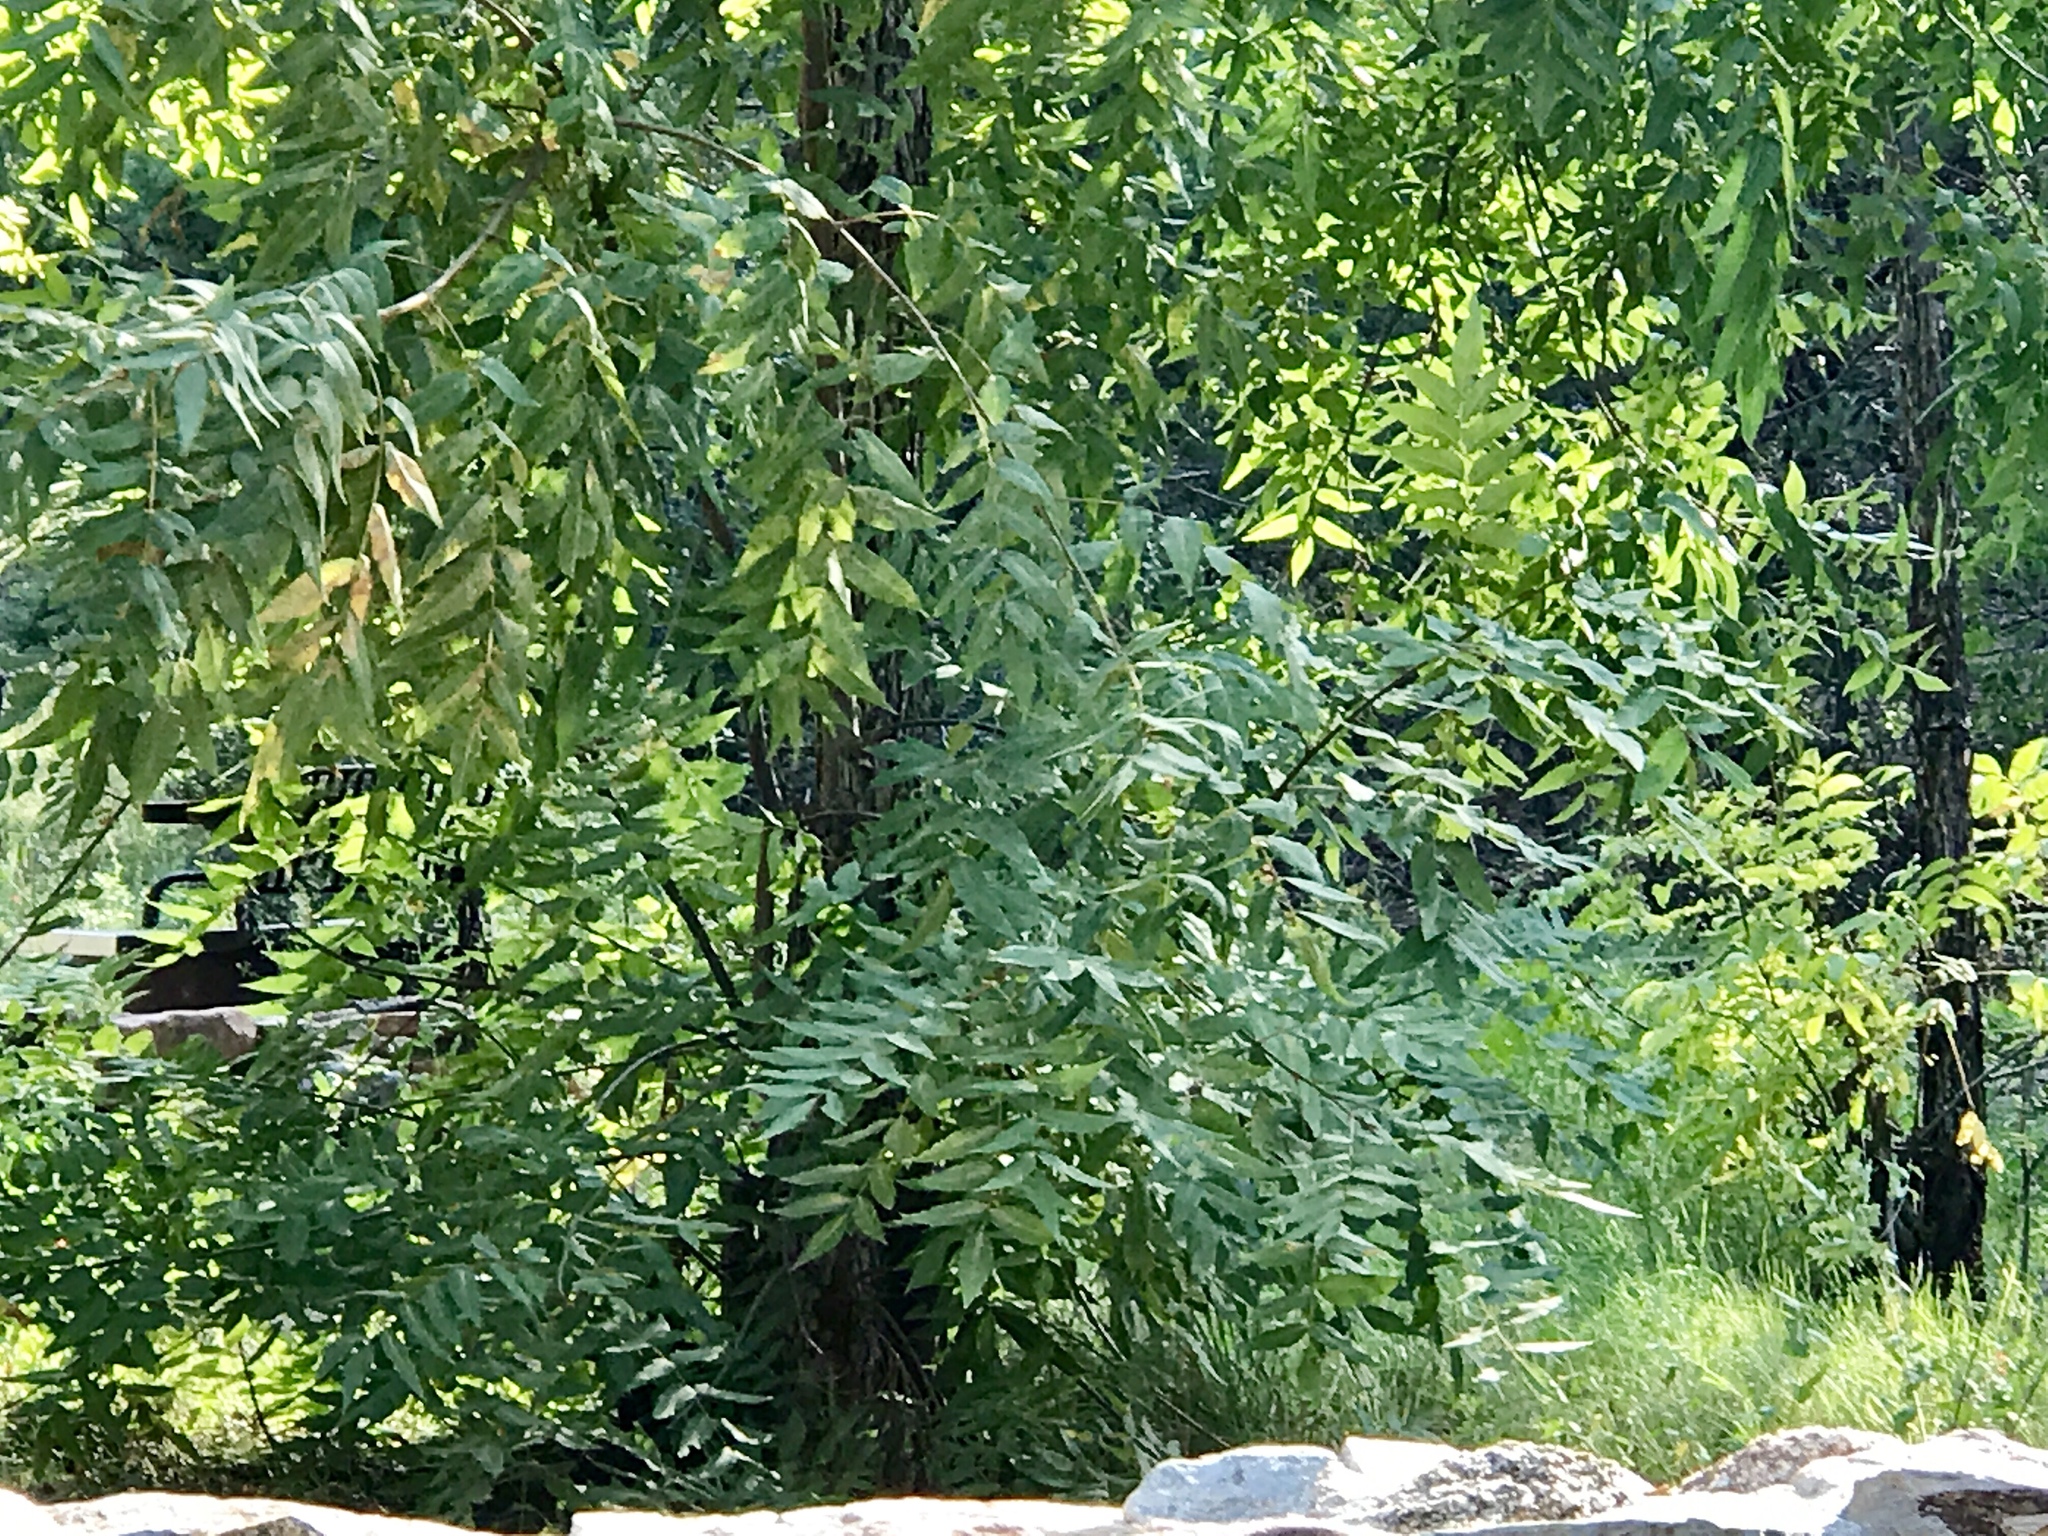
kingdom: Plantae
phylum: Tracheophyta
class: Magnoliopsida
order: Fagales
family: Juglandaceae
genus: Juglans
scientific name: Juglans major
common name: Arizona walnut
